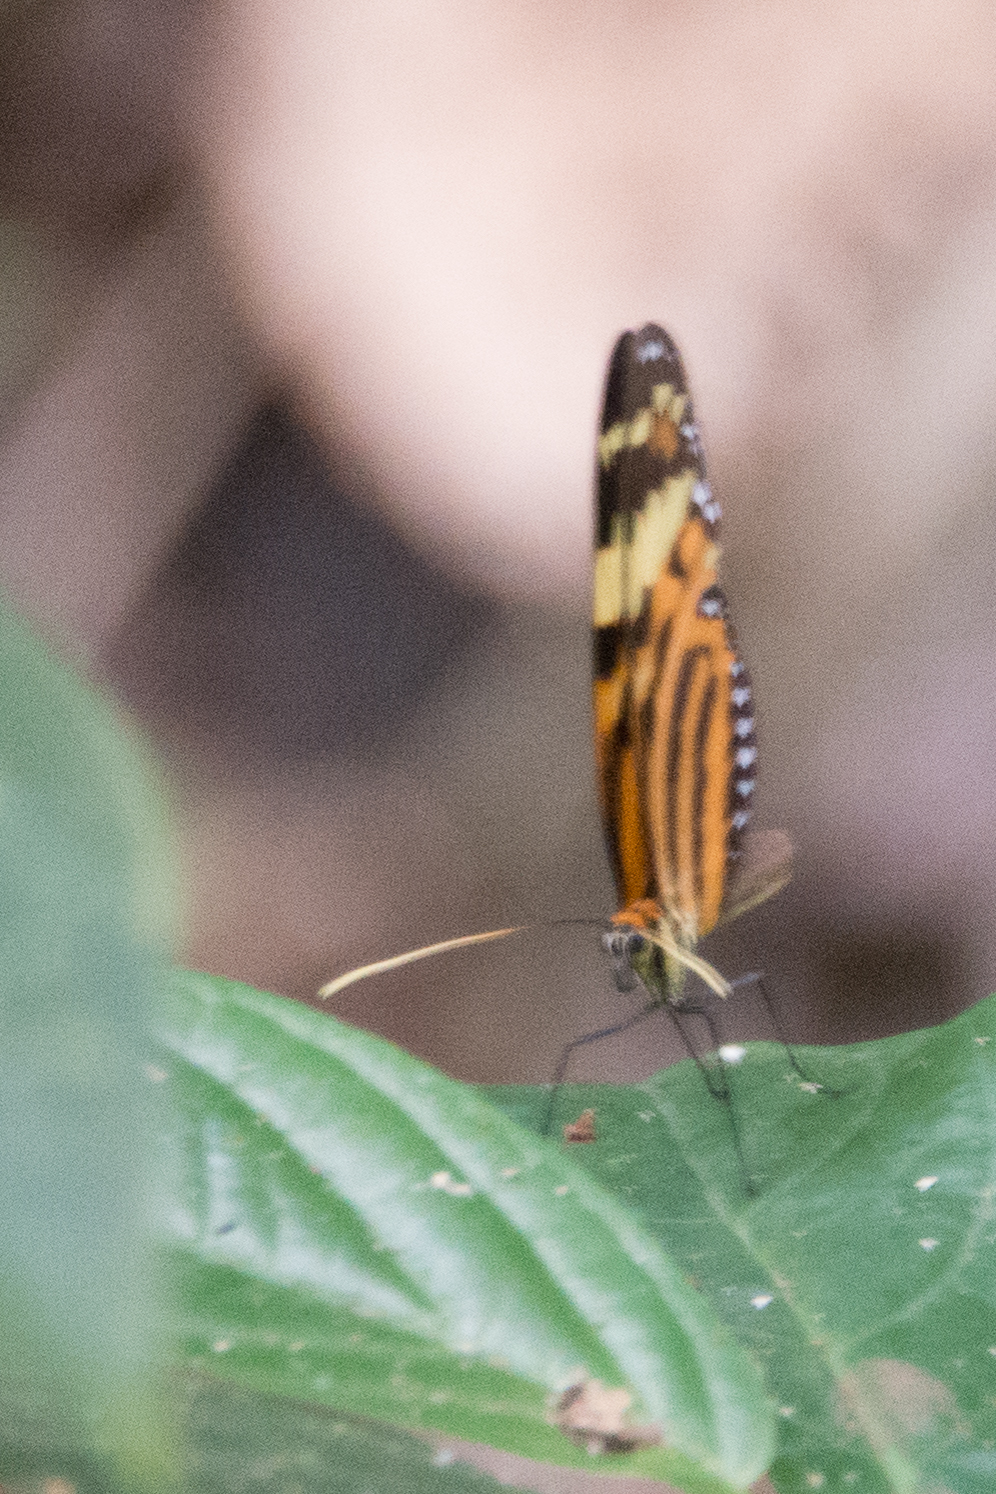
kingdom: Animalia
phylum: Arthropoda
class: Insecta
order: Lepidoptera
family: Nymphalidae
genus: Melinaea
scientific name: Melinaea lilis
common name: Mimic tigerwing
